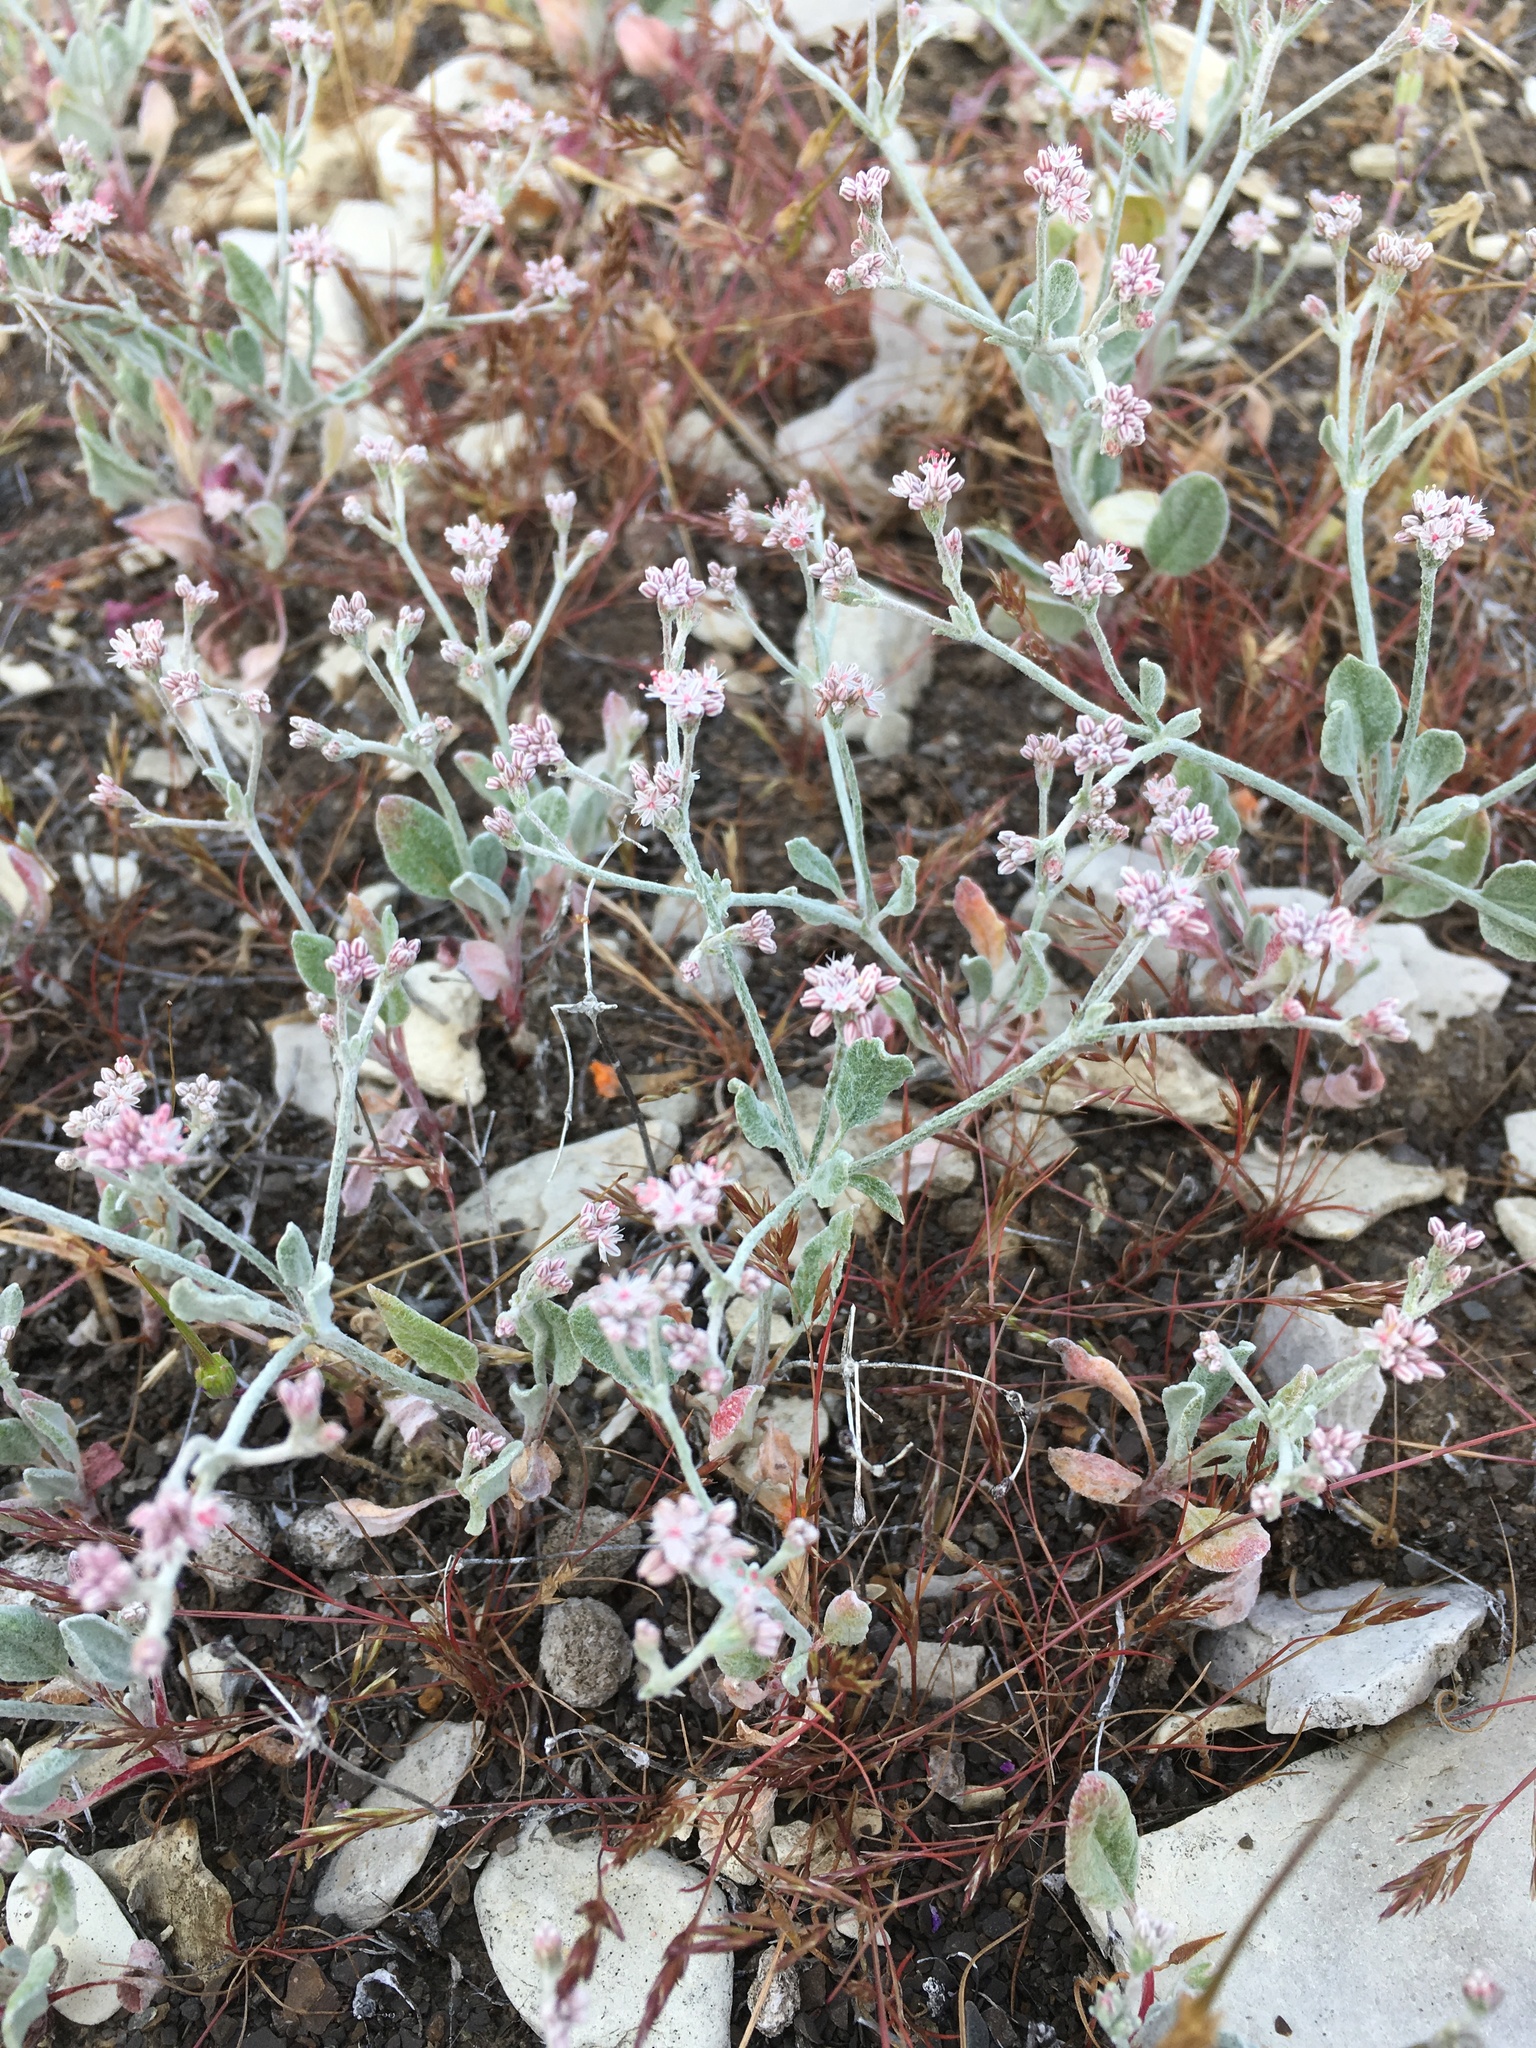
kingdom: Plantae
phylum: Tracheophyta
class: Magnoliopsida
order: Caryophyllales
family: Polygonaceae
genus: Eriogonum
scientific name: Eriogonum vestitum
